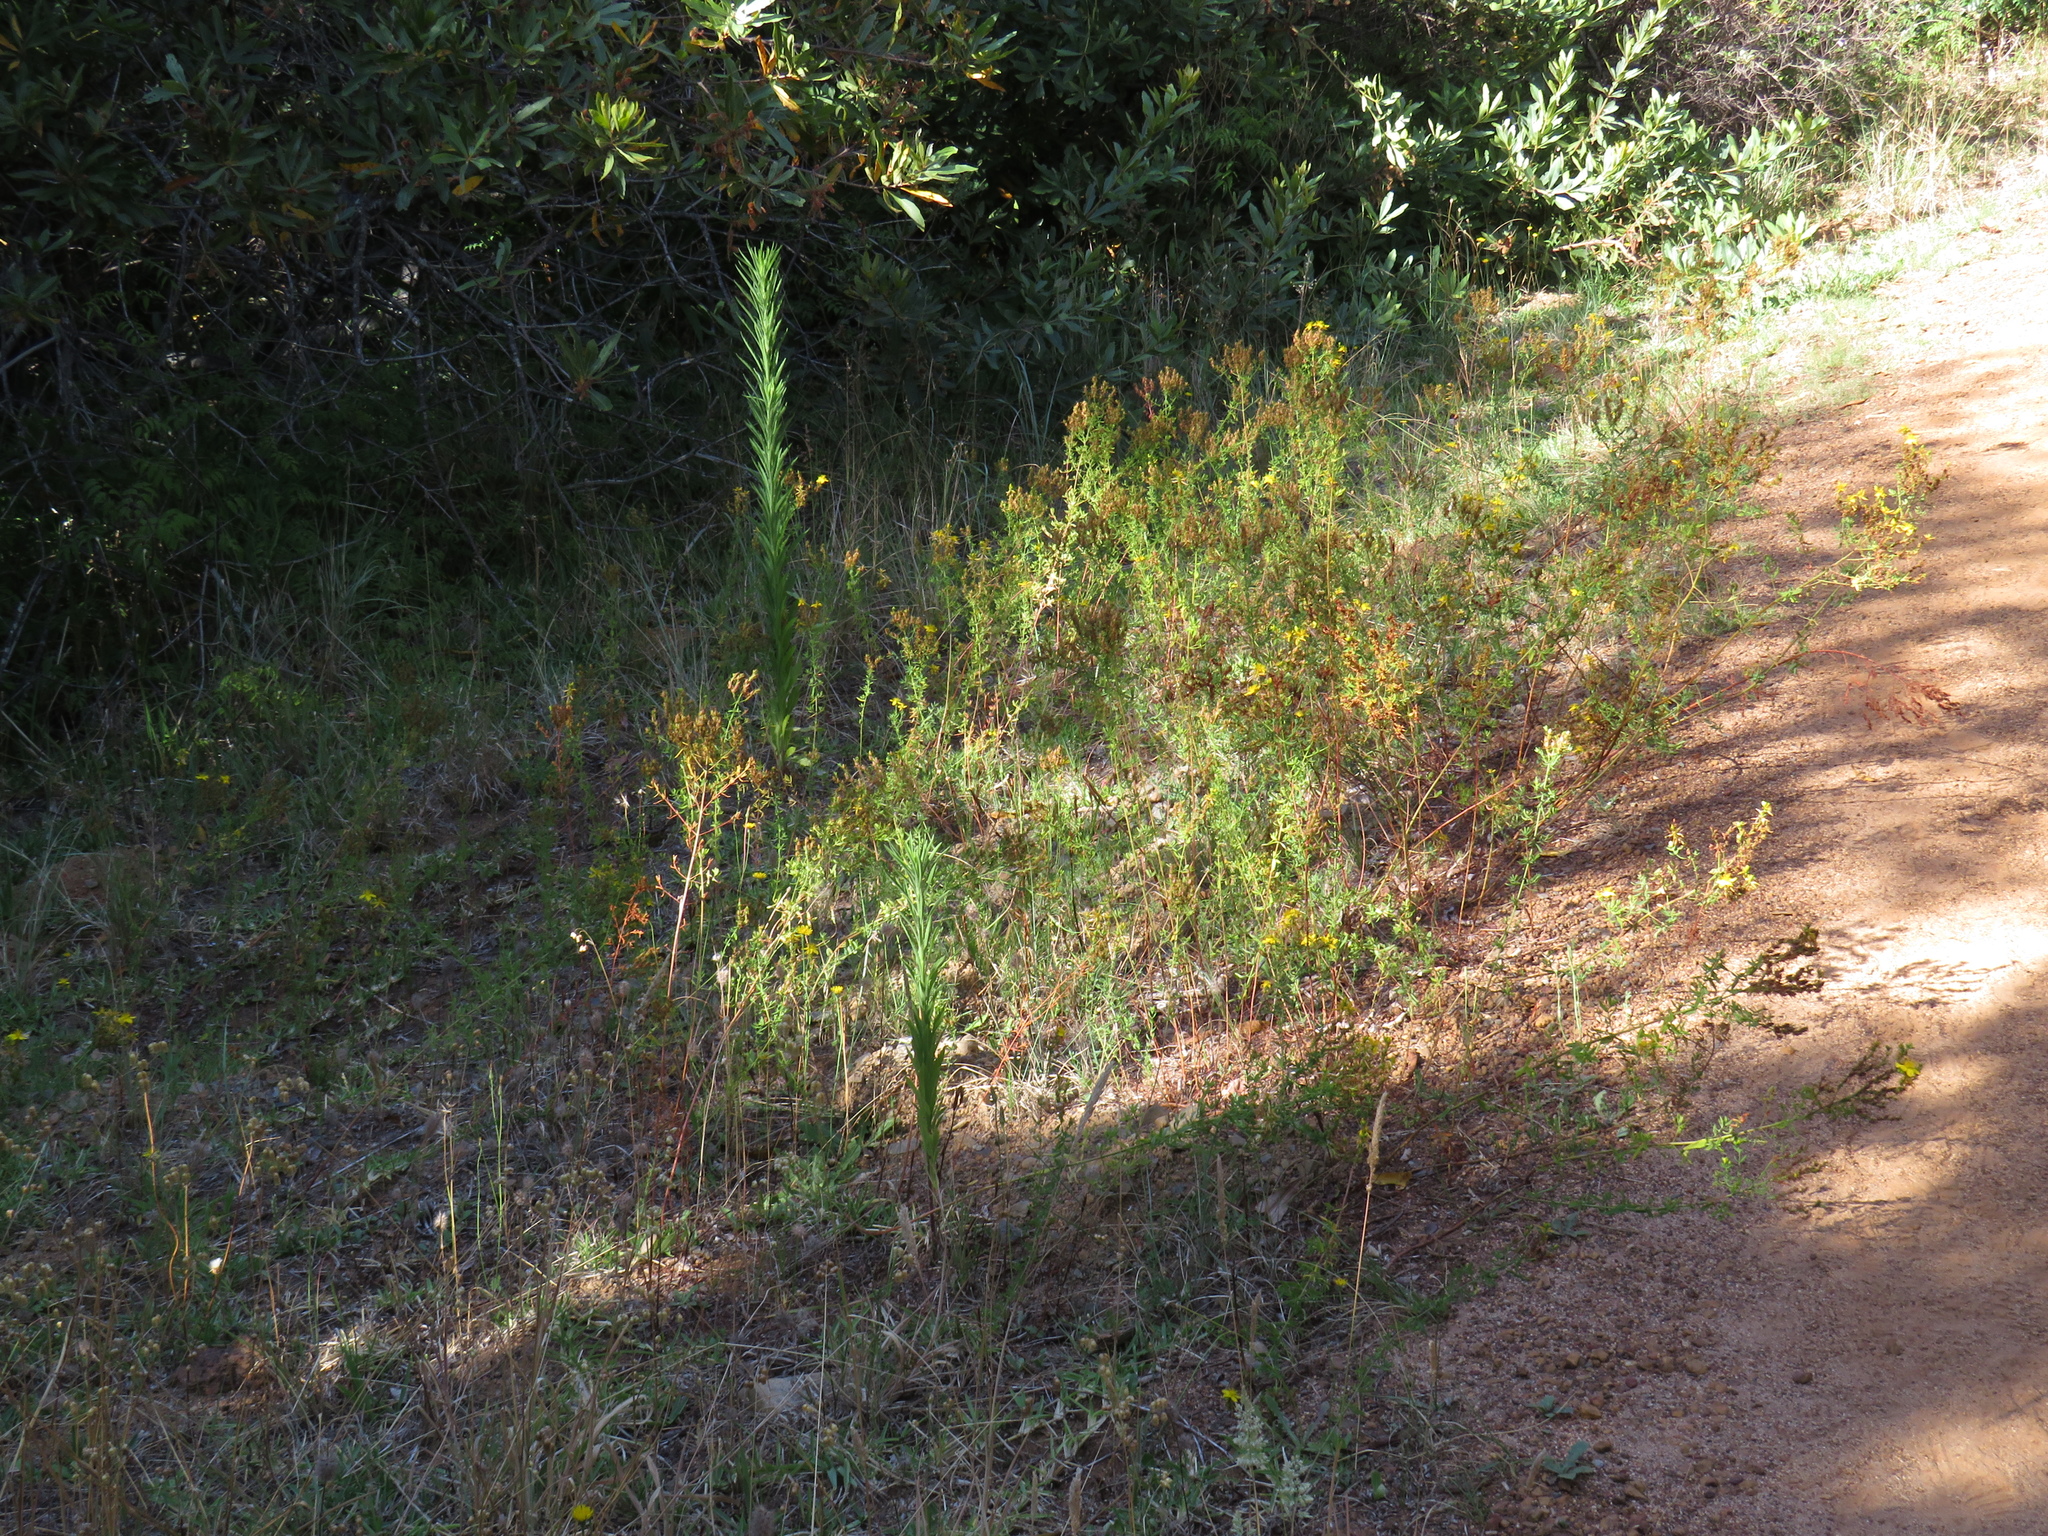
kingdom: Plantae
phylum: Tracheophyta
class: Magnoliopsida
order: Malpighiales
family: Hypericaceae
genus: Hypericum
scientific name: Hypericum perforatum
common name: Common st. johnswort
